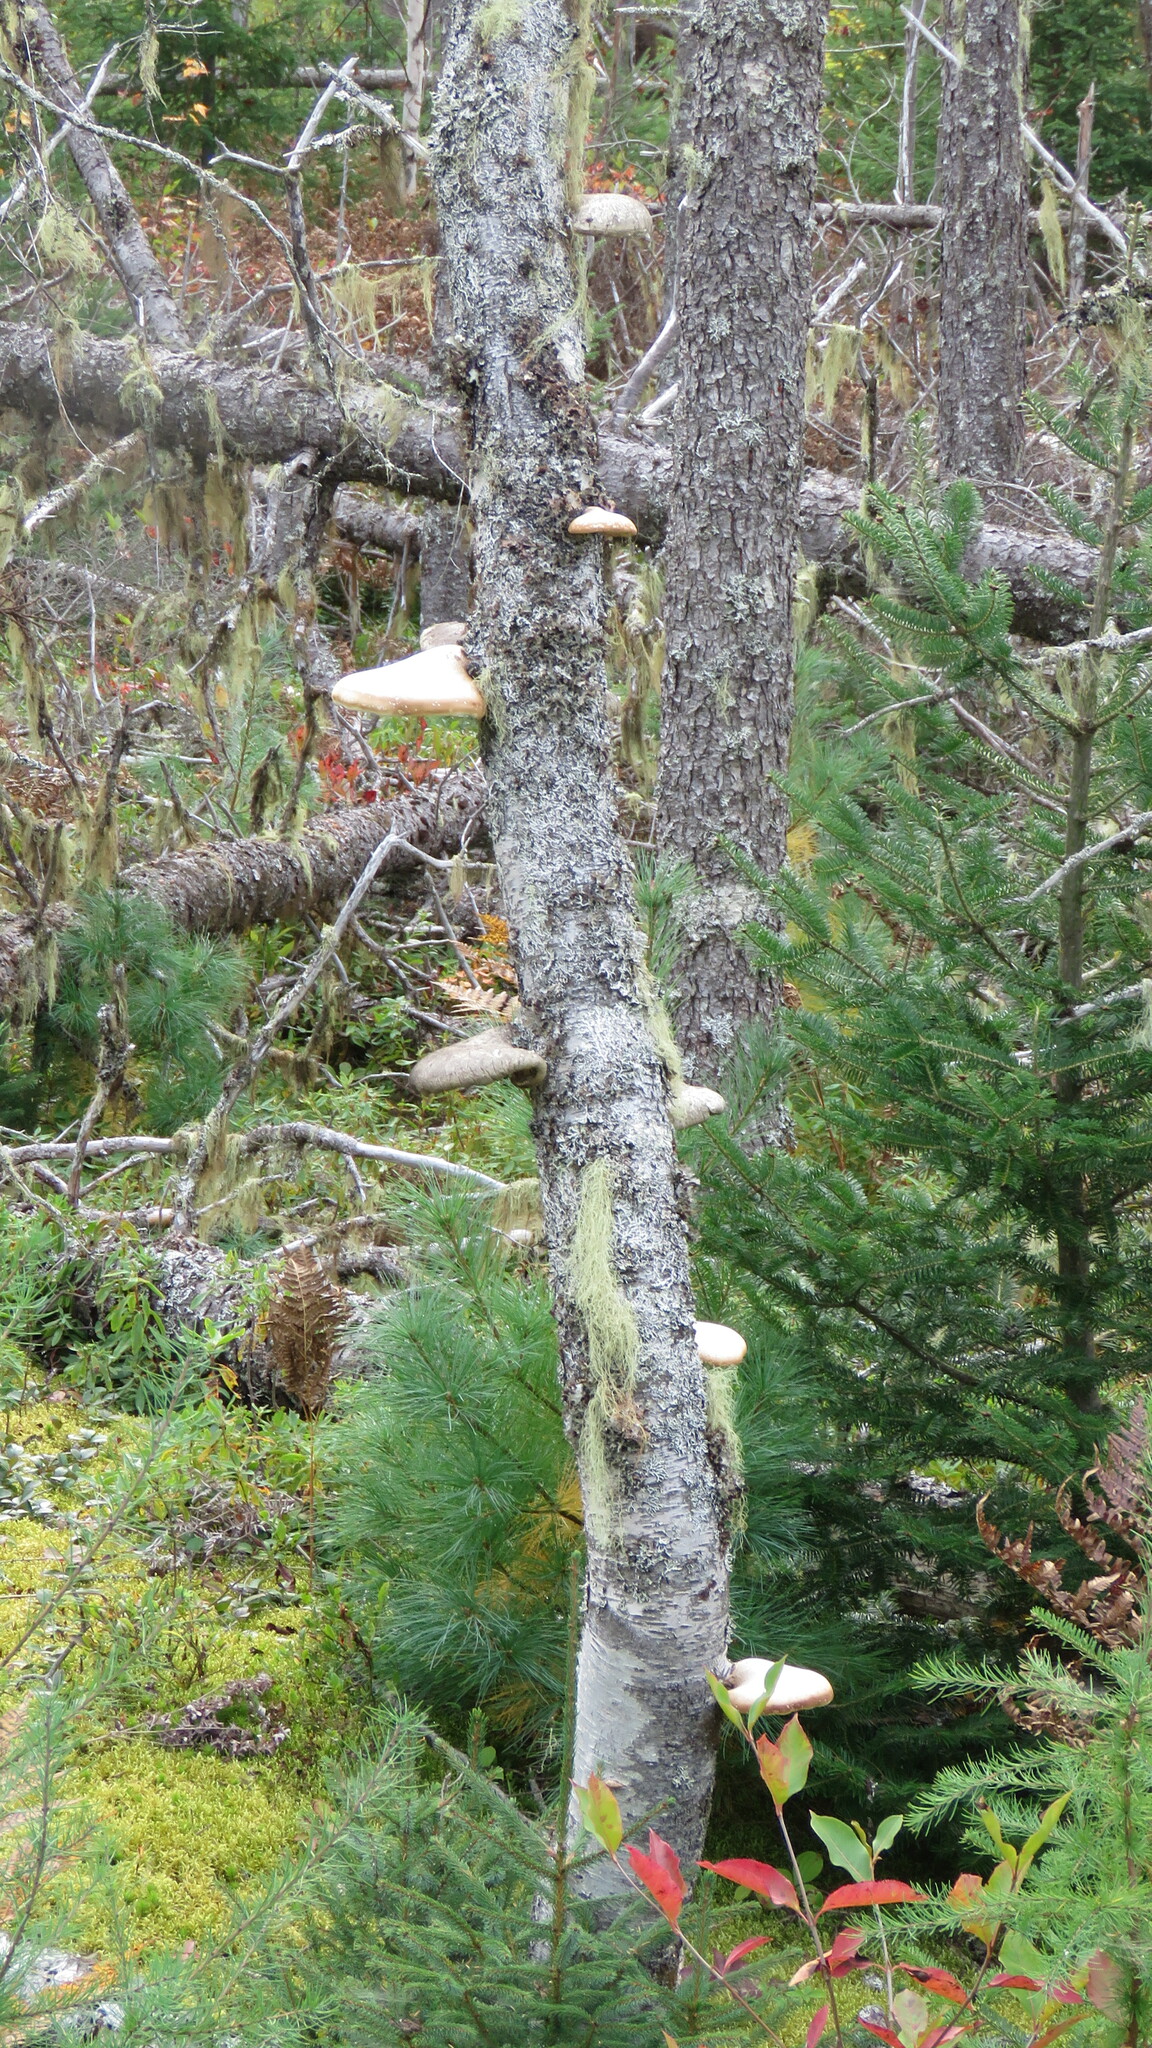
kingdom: Fungi
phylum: Basidiomycota
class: Agaricomycetes
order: Polyporales
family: Fomitopsidaceae
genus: Fomitopsis
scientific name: Fomitopsis betulina
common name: Birch polypore
